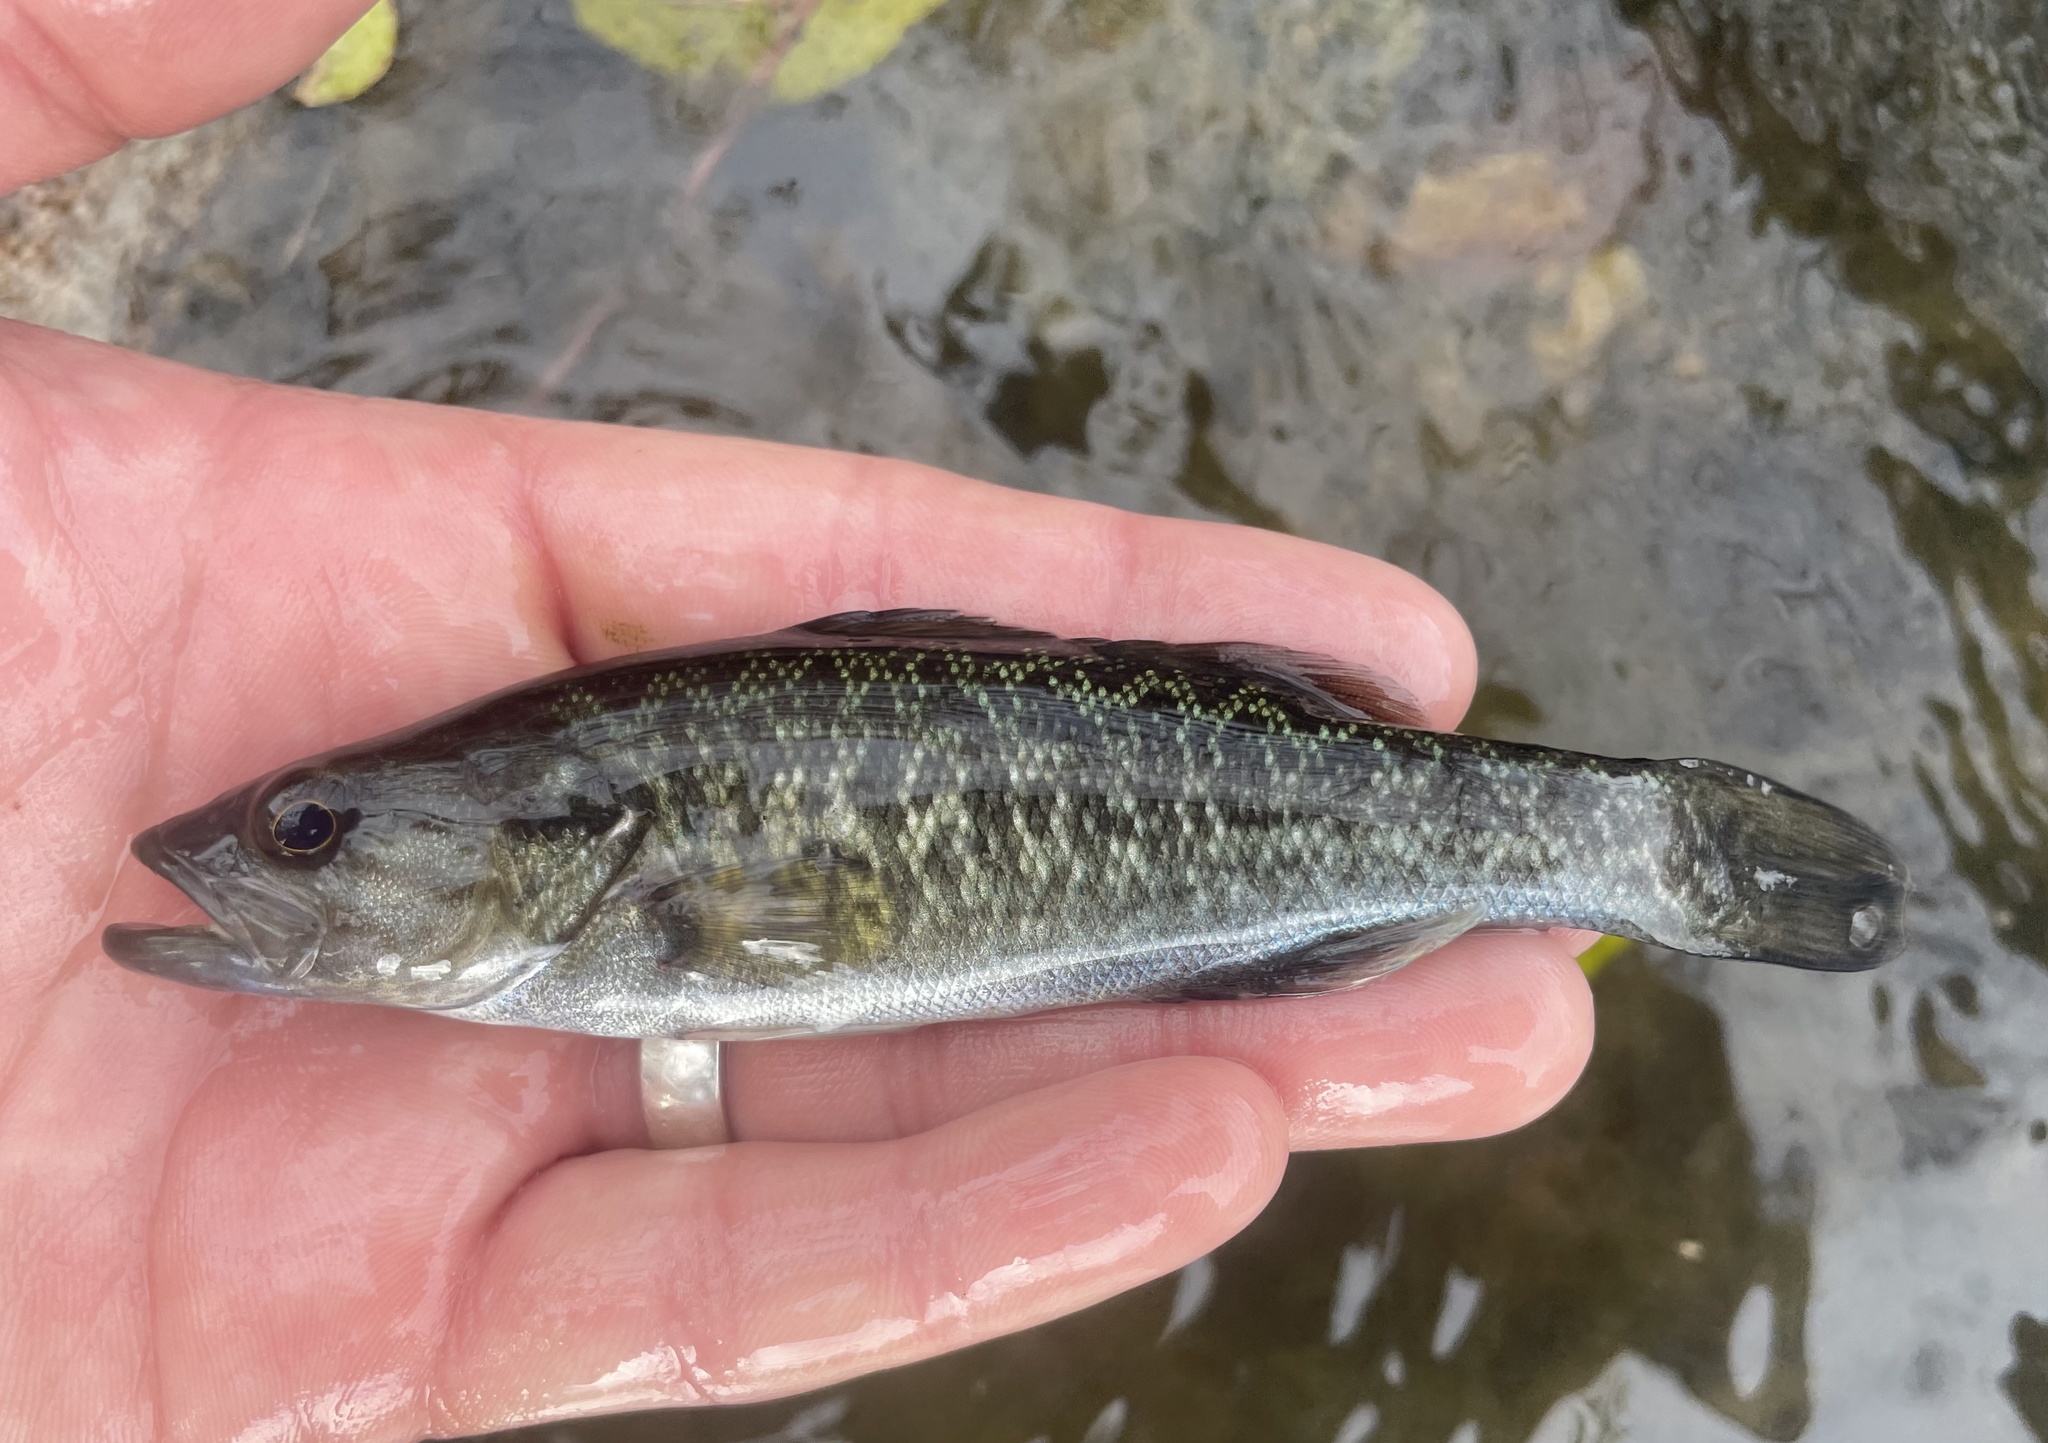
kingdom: Animalia
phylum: Chordata
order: Perciformes
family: Centrarchidae
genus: Micropterus
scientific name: Micropterus treculii
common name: Guadalupe bass
